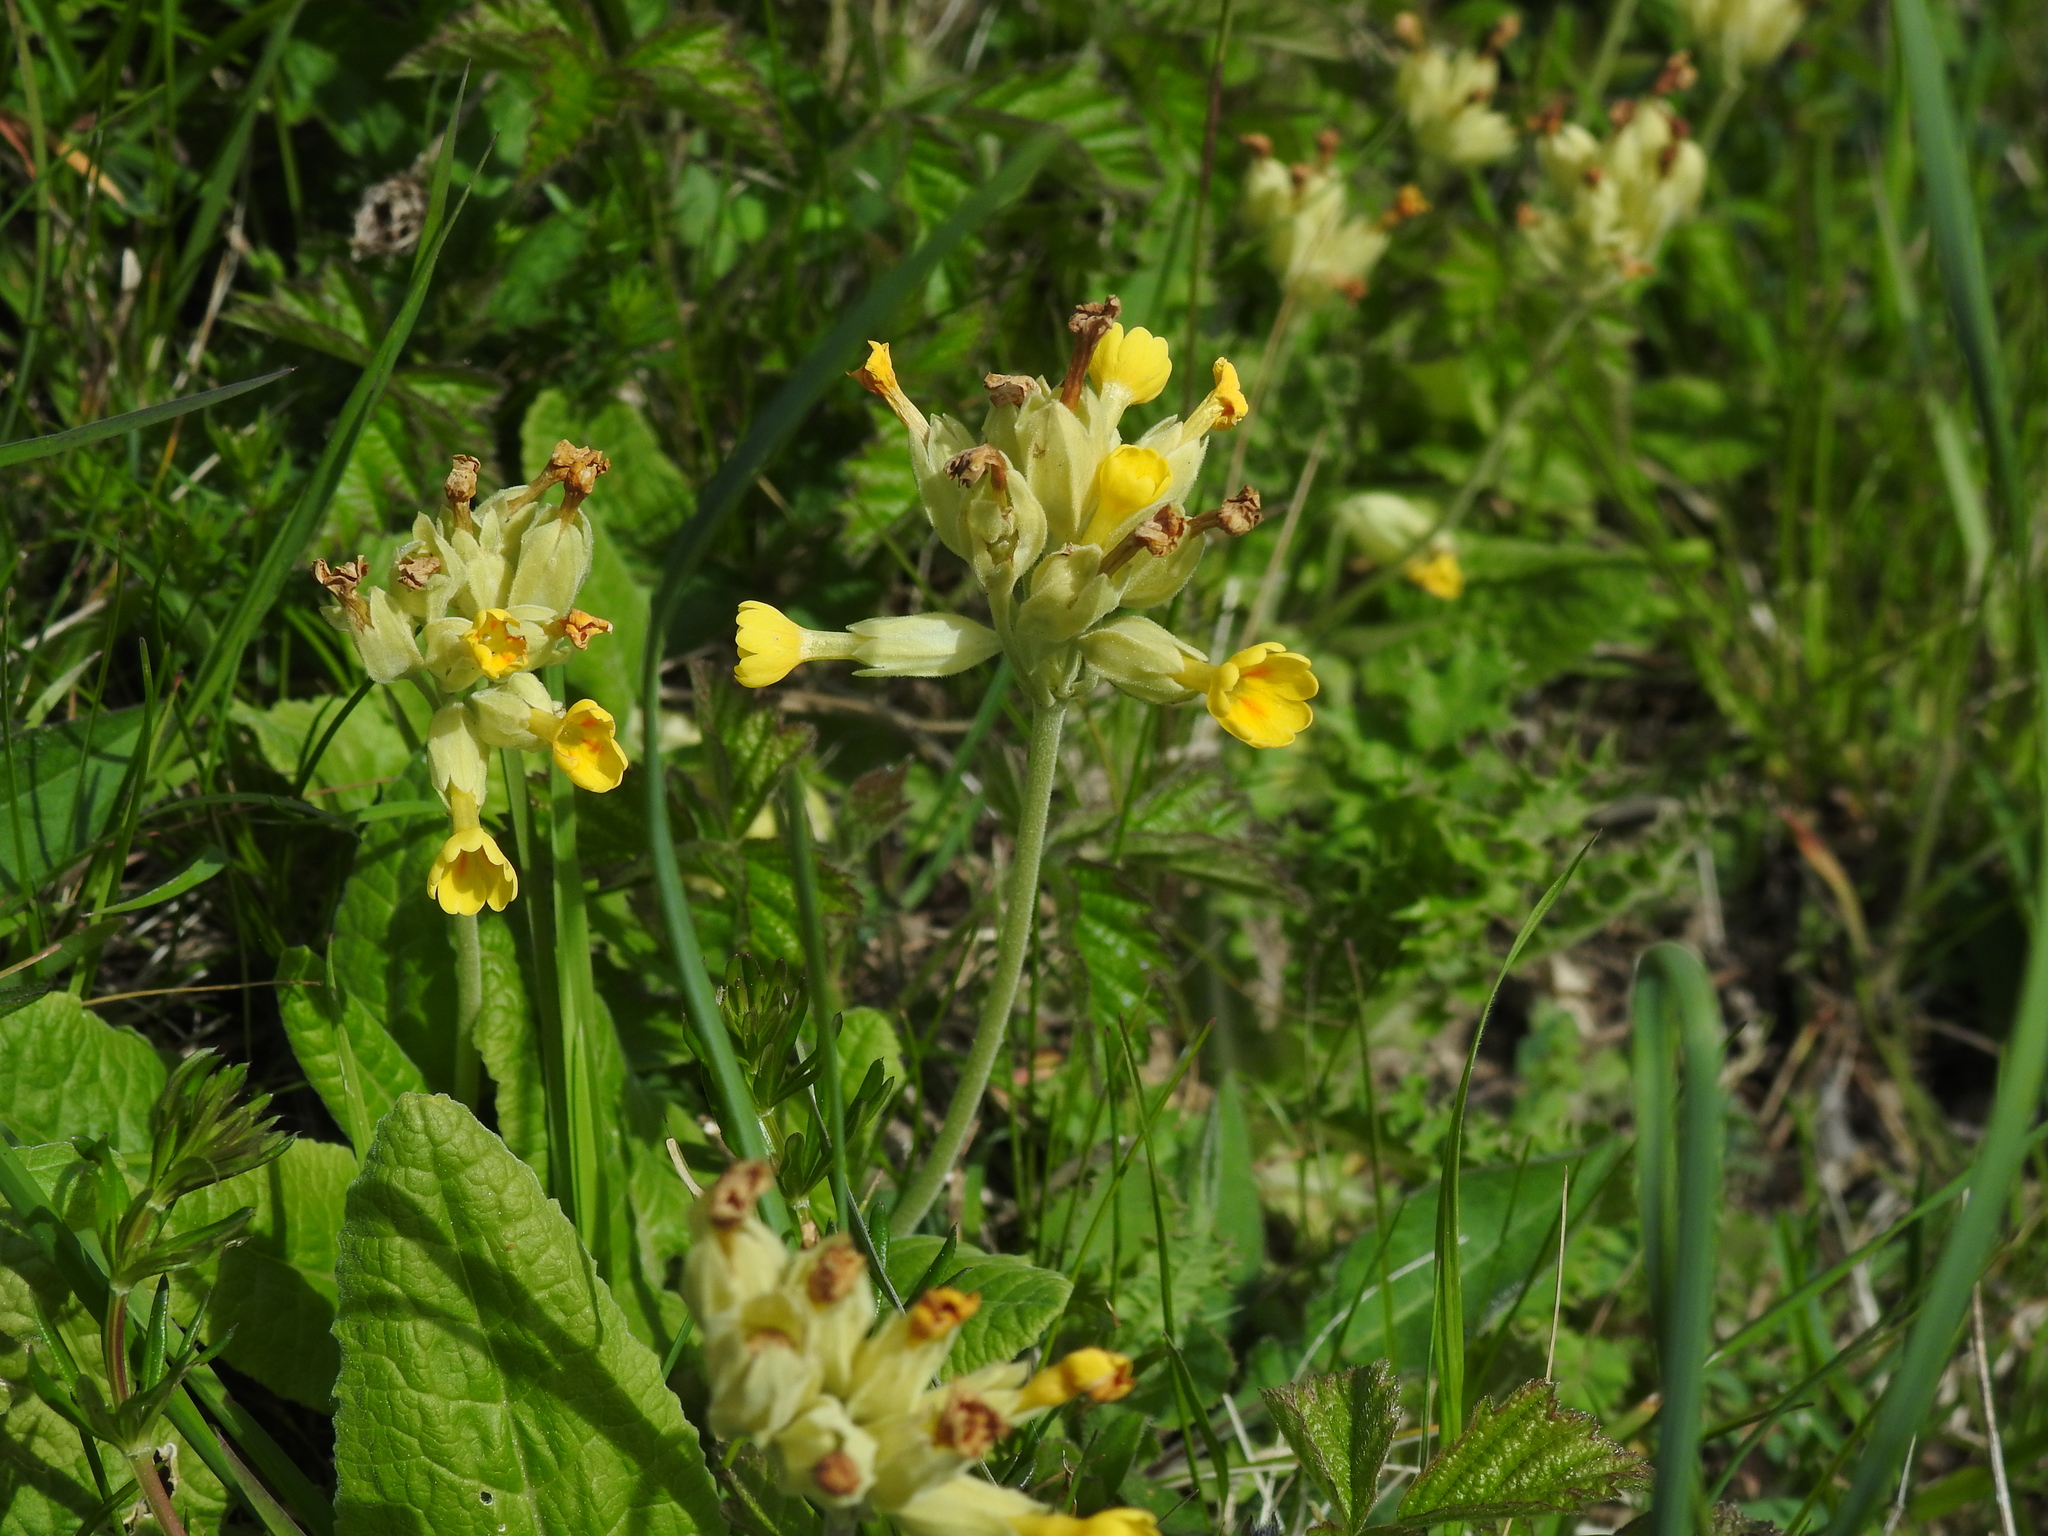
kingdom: Plantae
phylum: Tracheophyta
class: Magnoliopsida
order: Ericales
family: Primulaceae
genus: Primula
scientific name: Primula veris
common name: Cowslip
